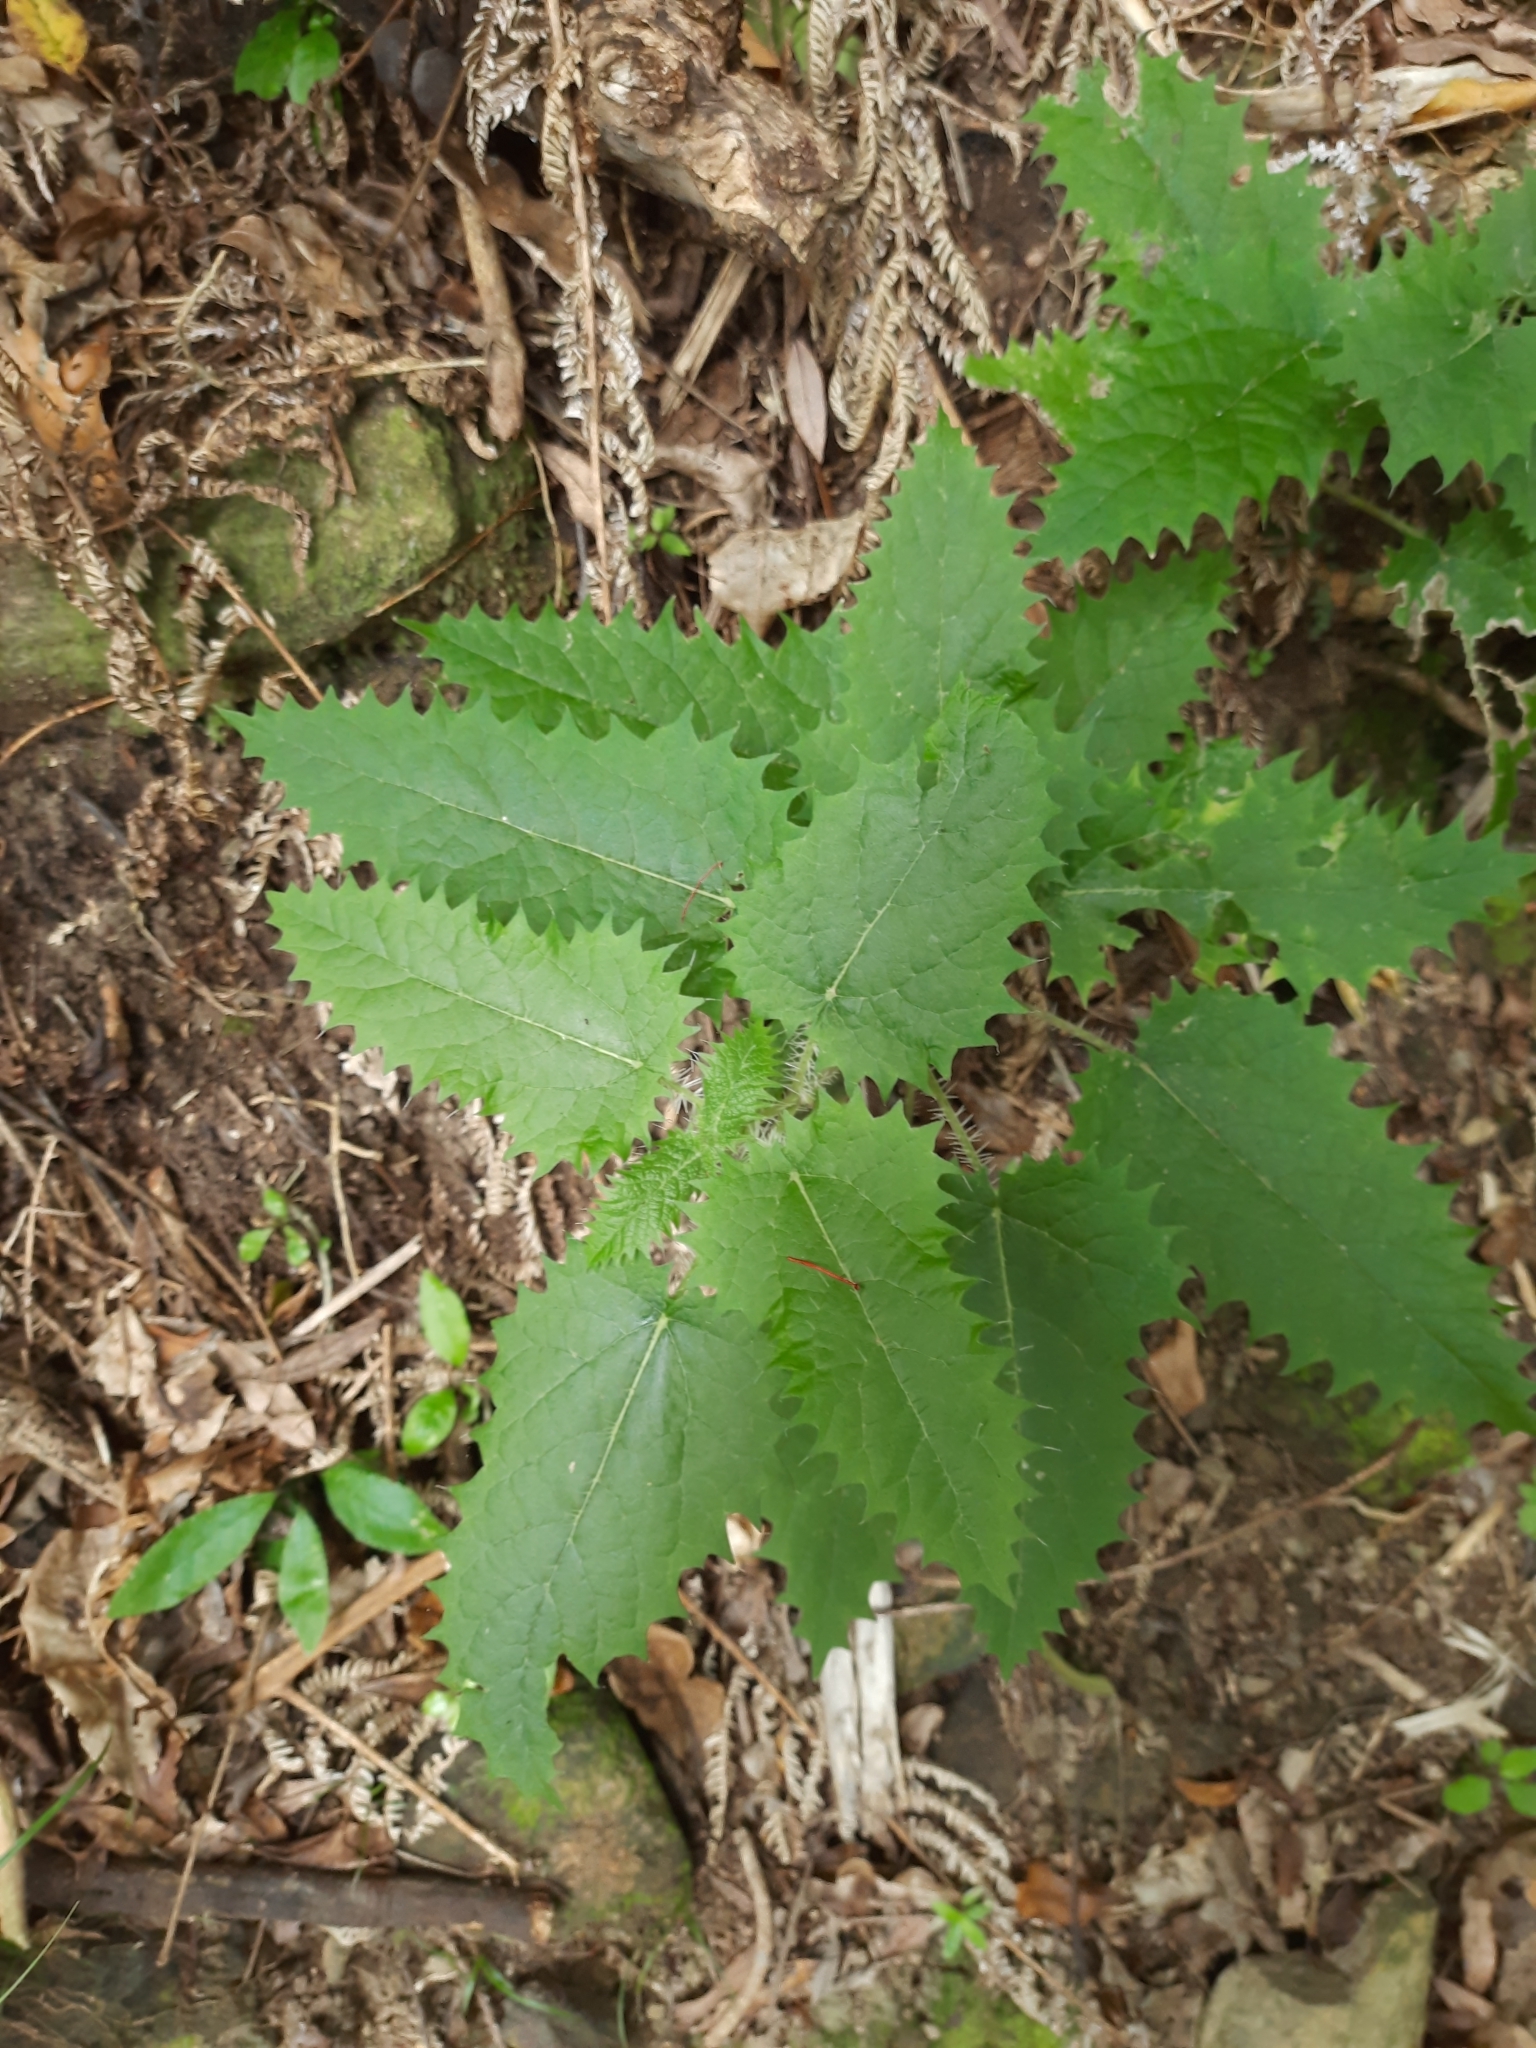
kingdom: Plantae
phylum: Tracheophyta
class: Magnoliopsida
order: Rosales
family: Urticaceae
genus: Urtica
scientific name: Urtica ferox
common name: Tree nettle
